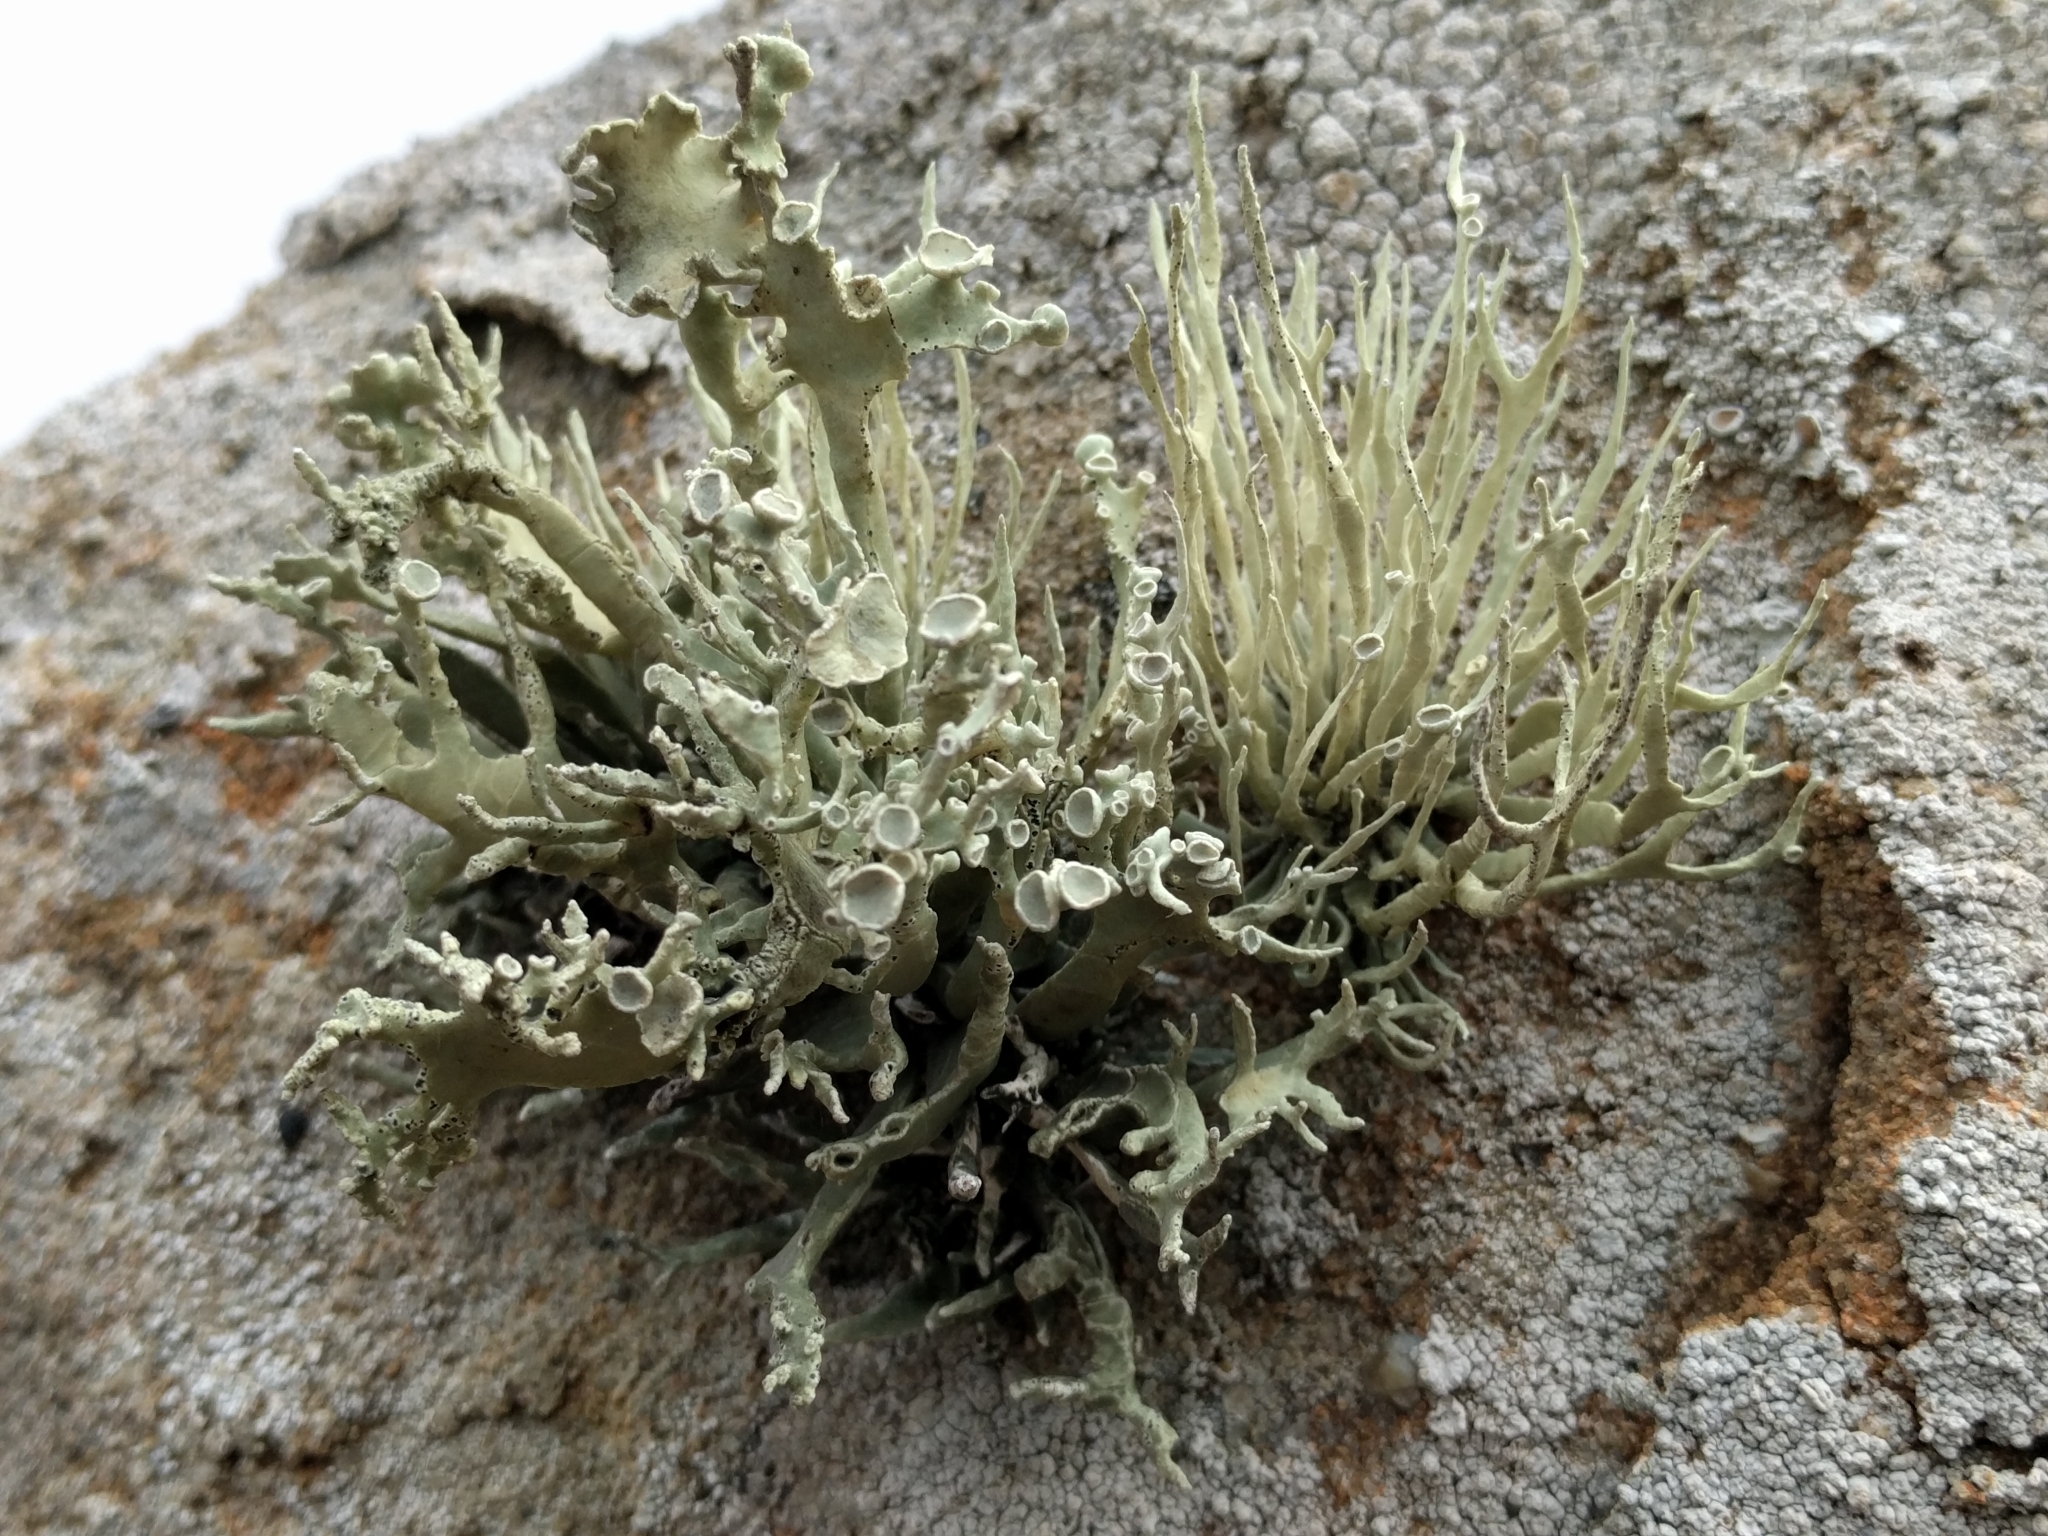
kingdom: Fungi
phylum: Ascomycota
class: Lecanoromycetes
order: Lecanorales
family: Ramalinaceae
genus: Niebla
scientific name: Niebla homalea
